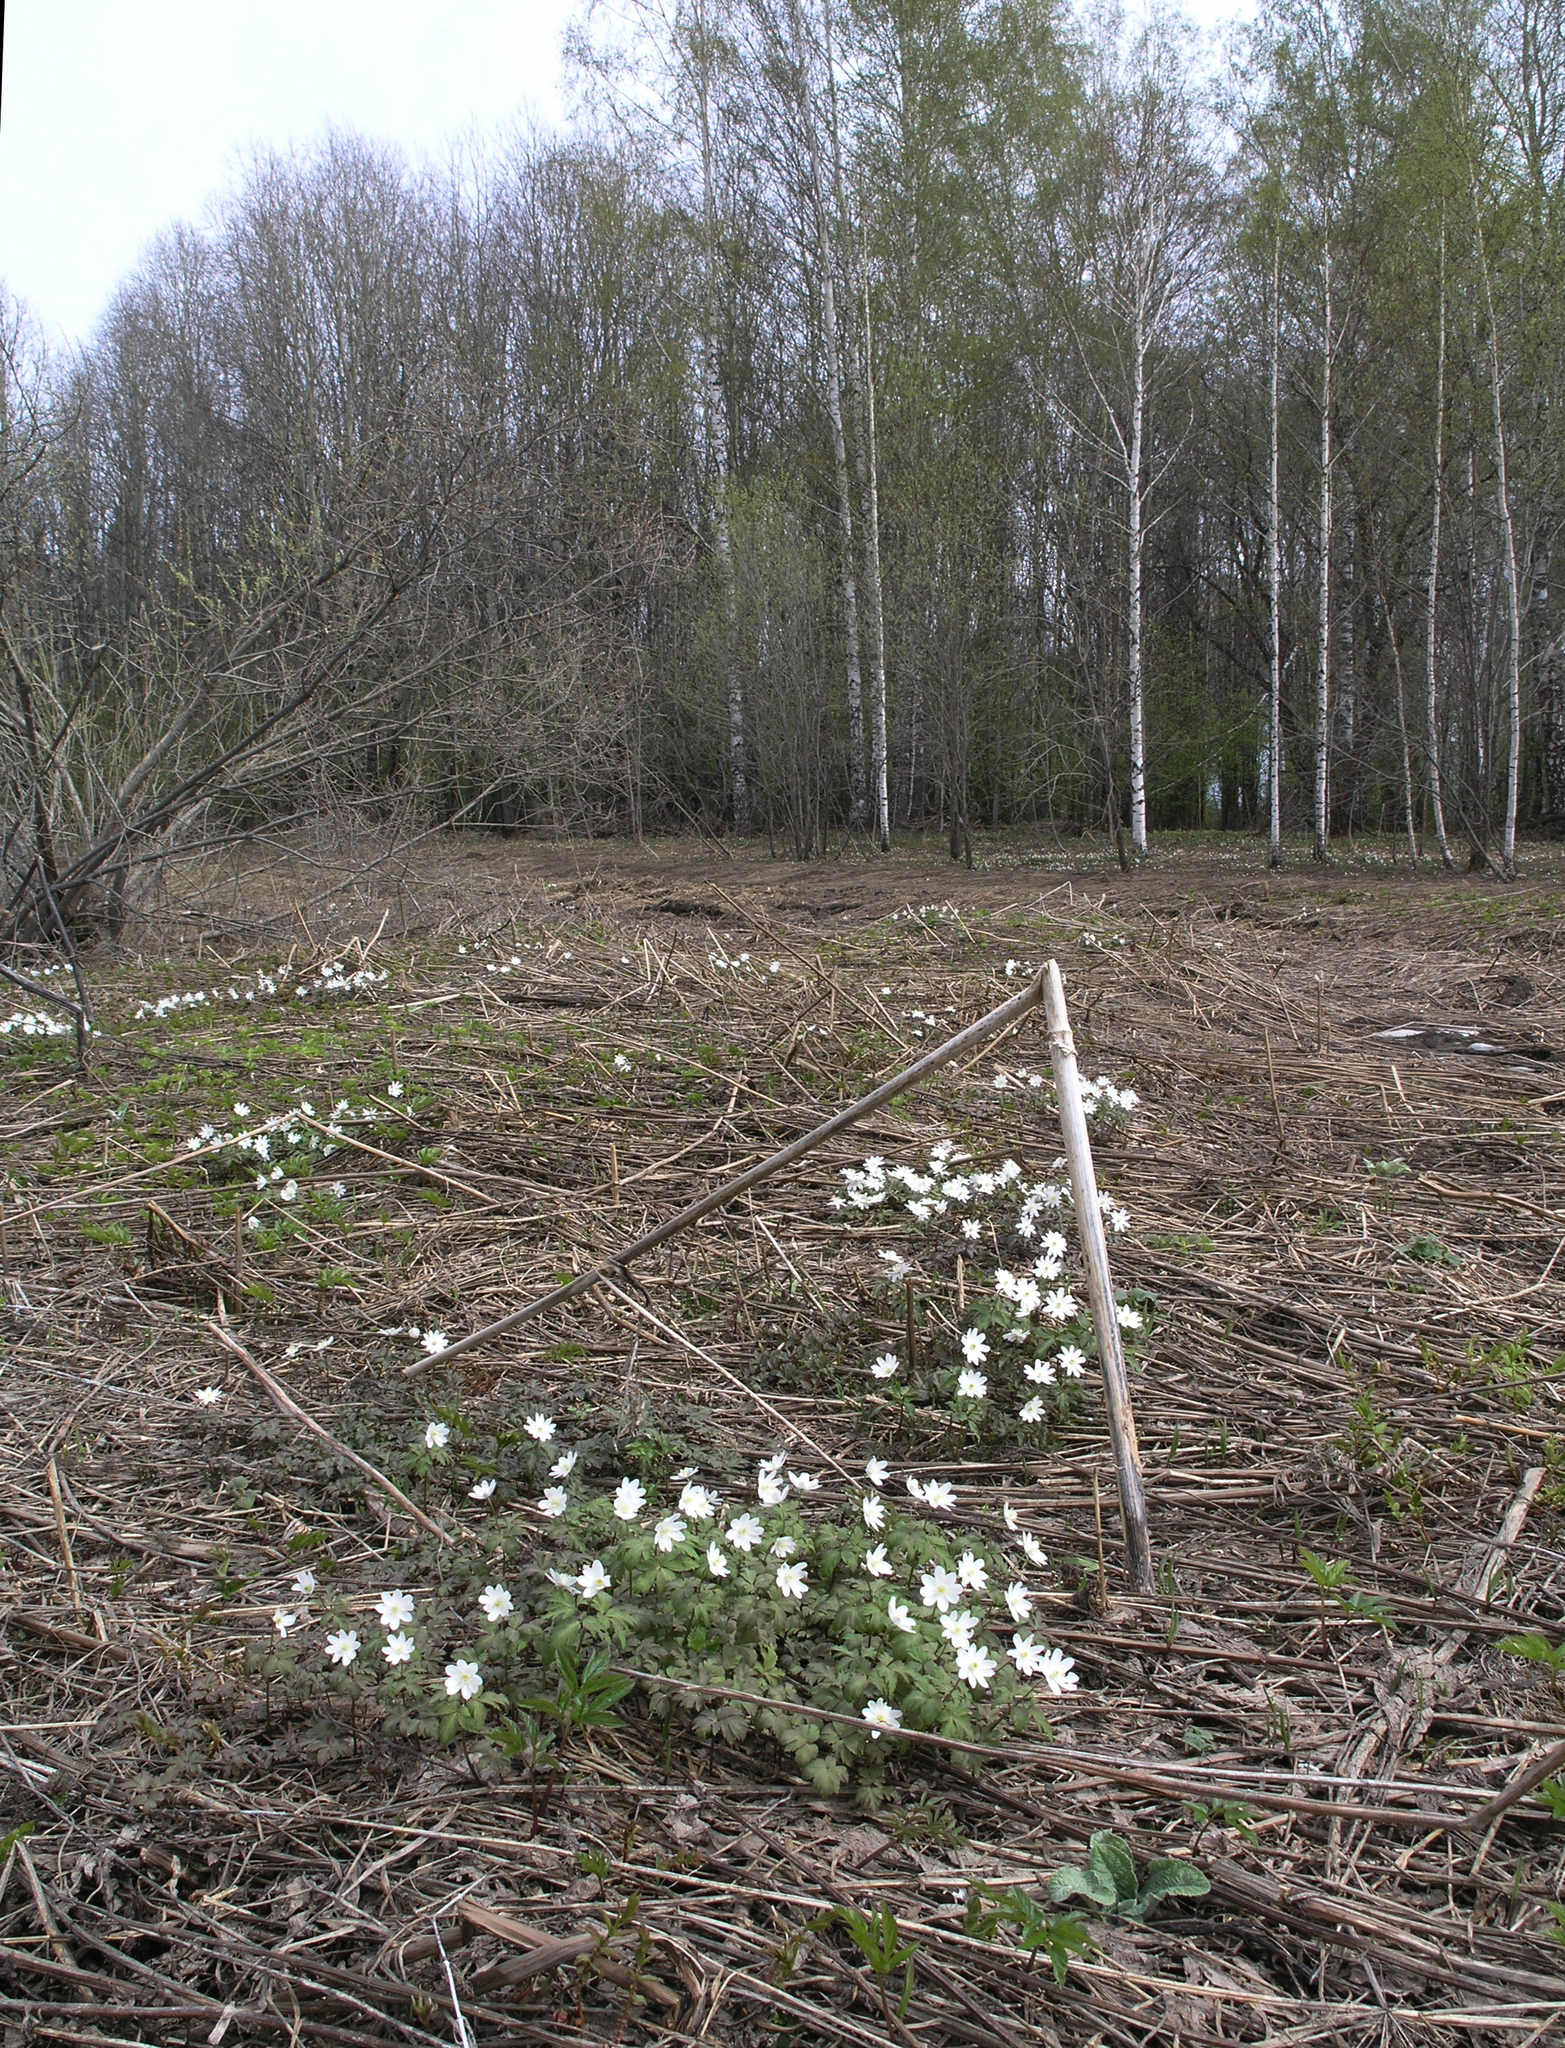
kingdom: Plantae
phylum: Tracheophyta
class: Magnoliopsida
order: Ranunculales
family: Ranunculaceae
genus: Anemone
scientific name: Anemone altaica
